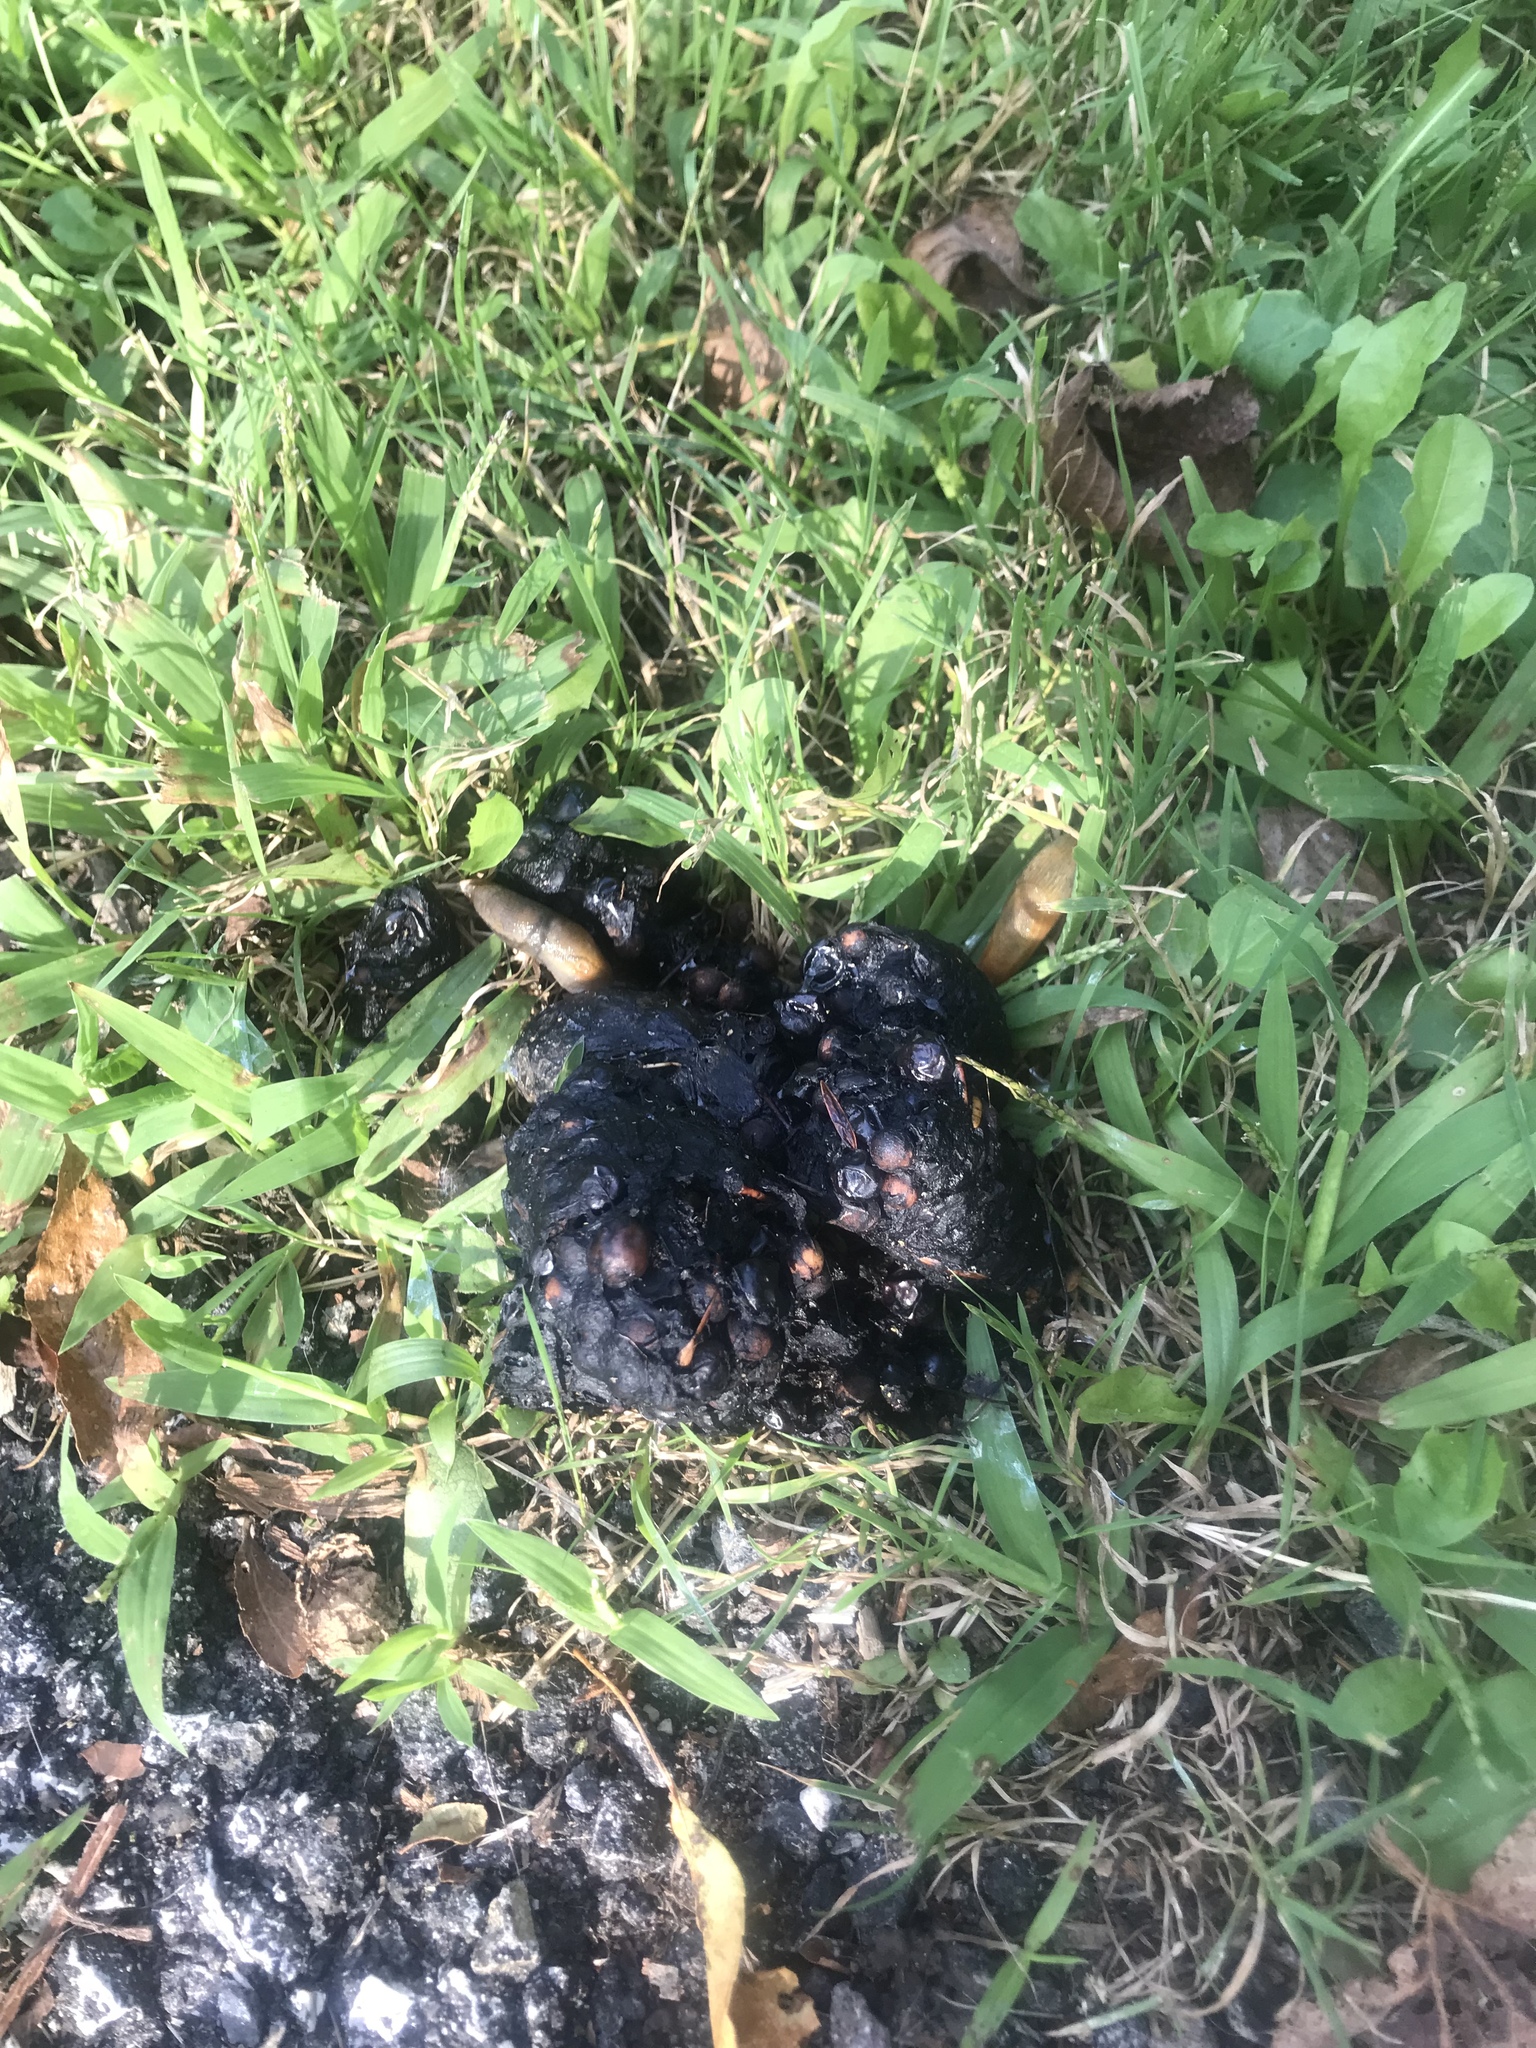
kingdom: Animalia
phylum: Chordata
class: Mammalia
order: Carnivora
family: Ursidae
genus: Ursus
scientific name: Ursus americanus
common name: American black bear
